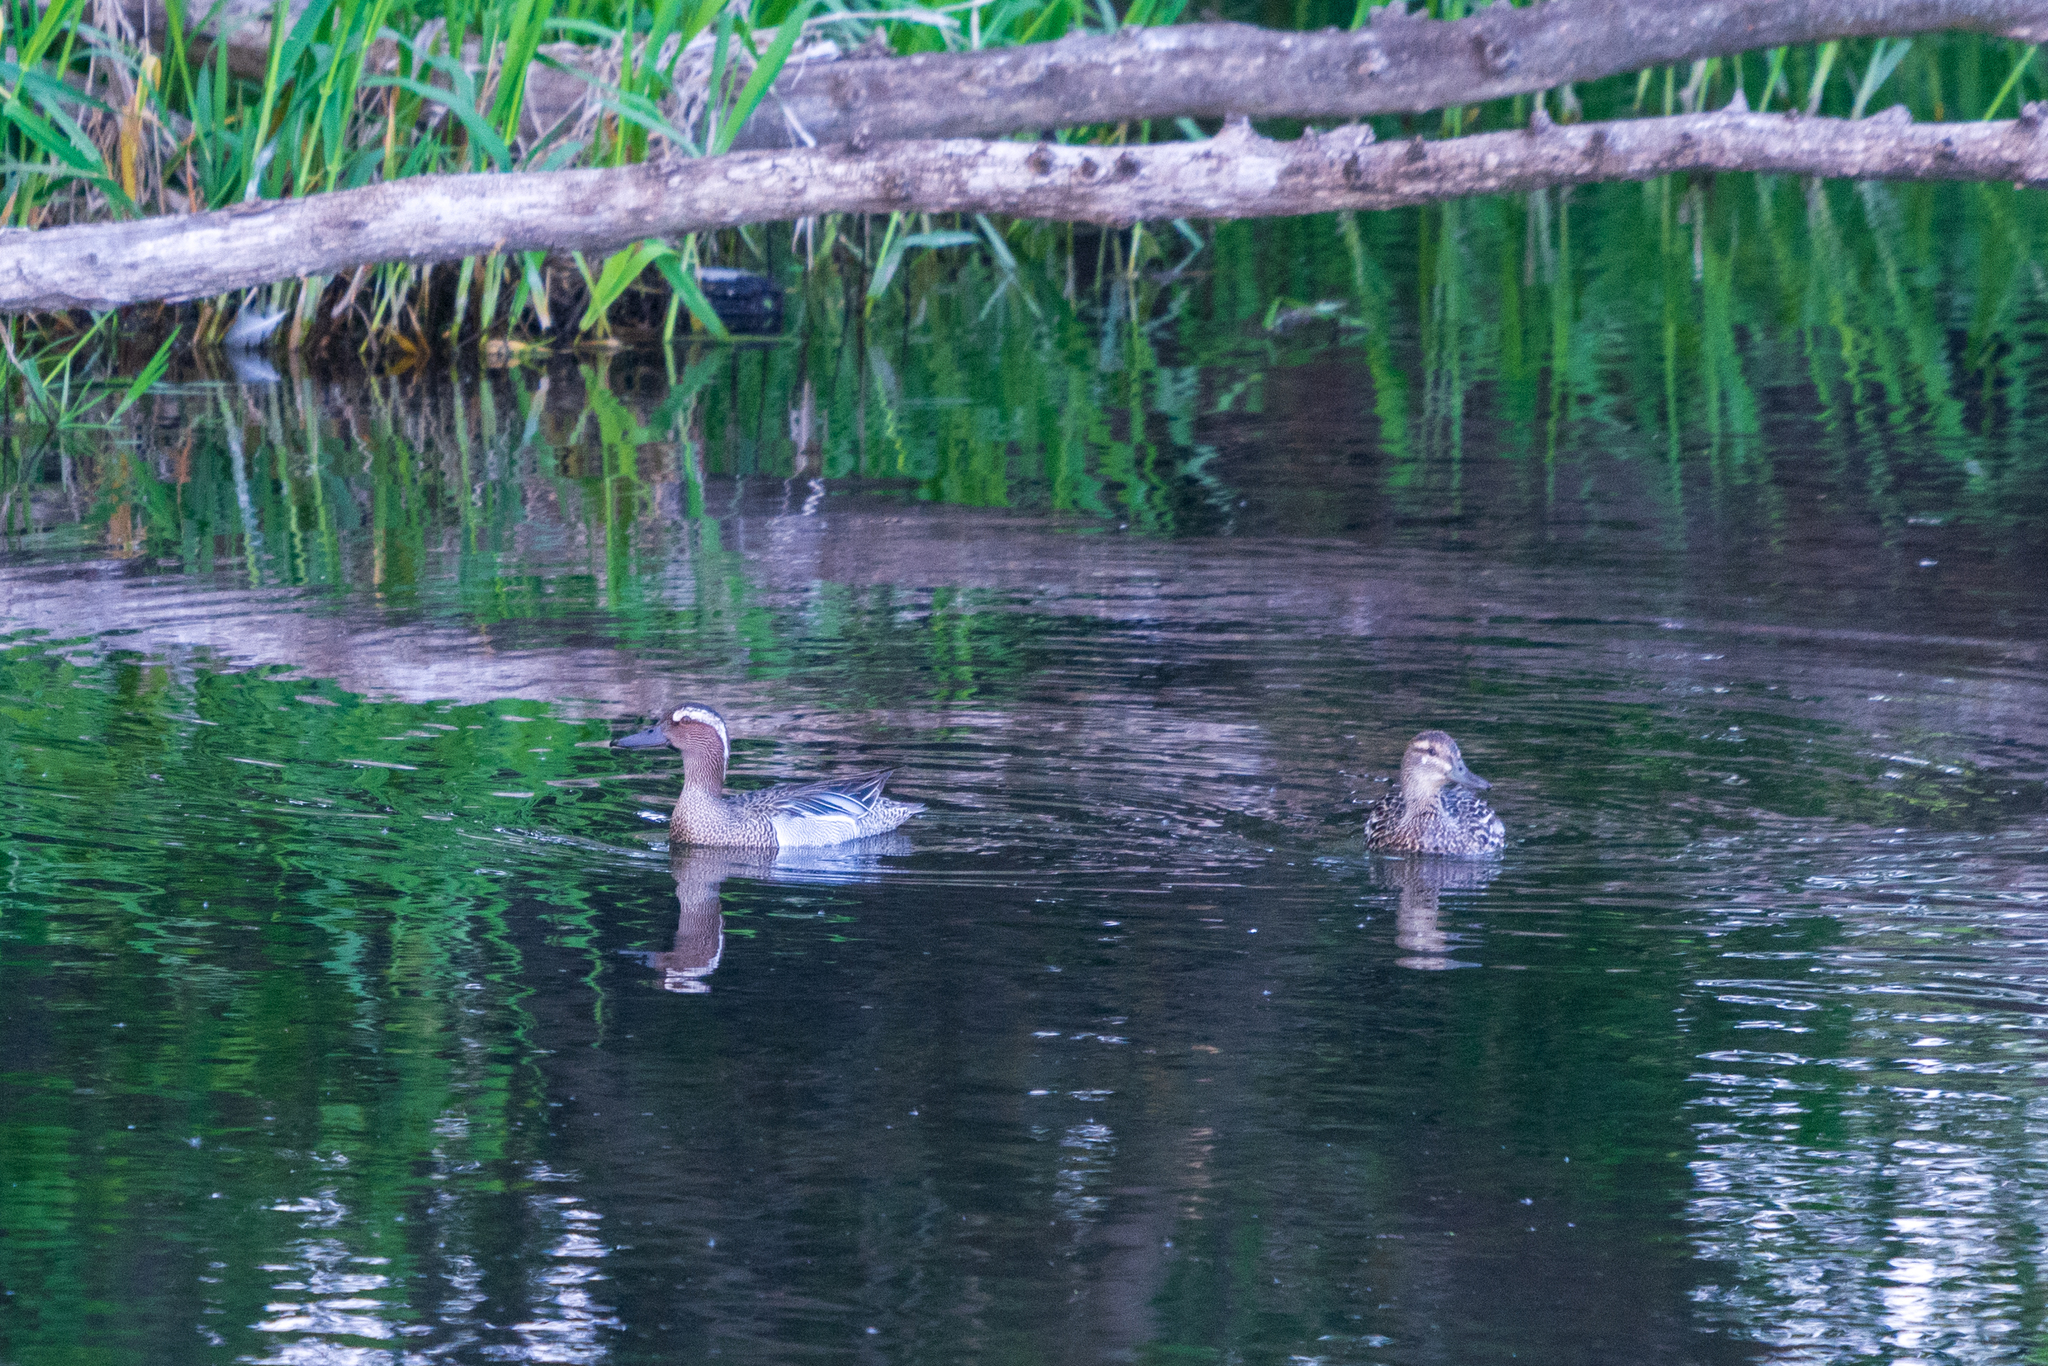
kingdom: Animalia
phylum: Chordata
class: Aves
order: Anseriformes
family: Anatidae
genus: Spatula
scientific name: Spatula querquedula
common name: Garganey
